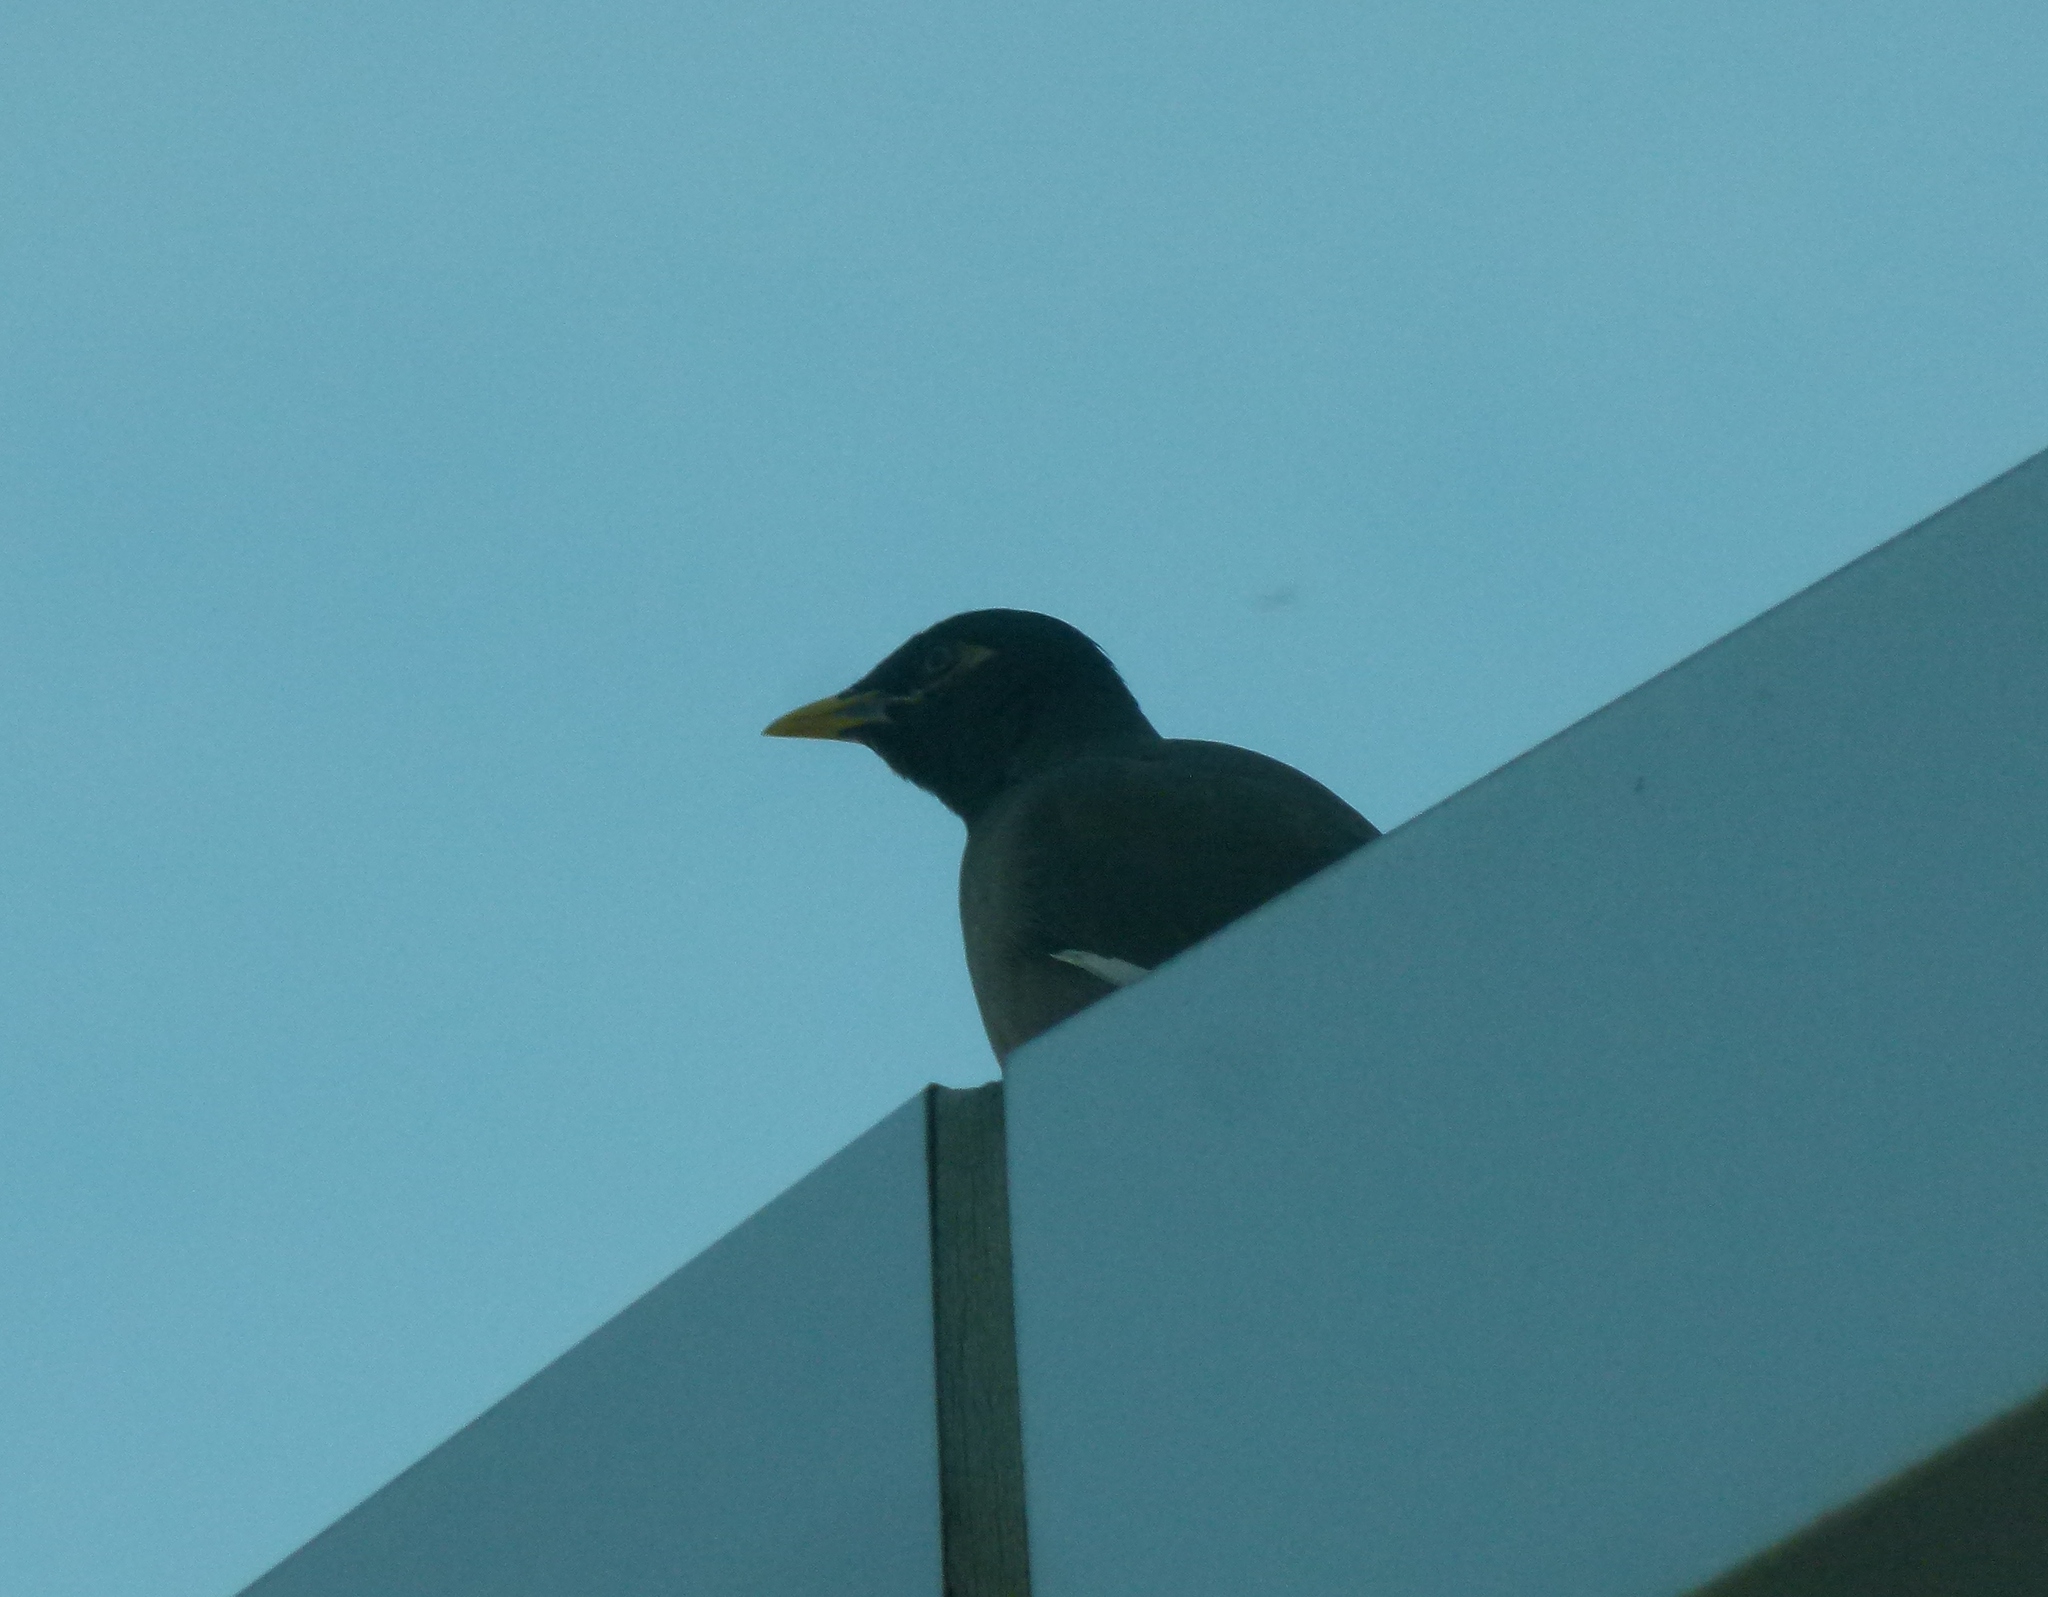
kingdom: Animalia
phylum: Chordata
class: Aves
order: Passeriformes
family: Sturnidae
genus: Acridotheres
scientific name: Acridotheres tristis
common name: Common myna
